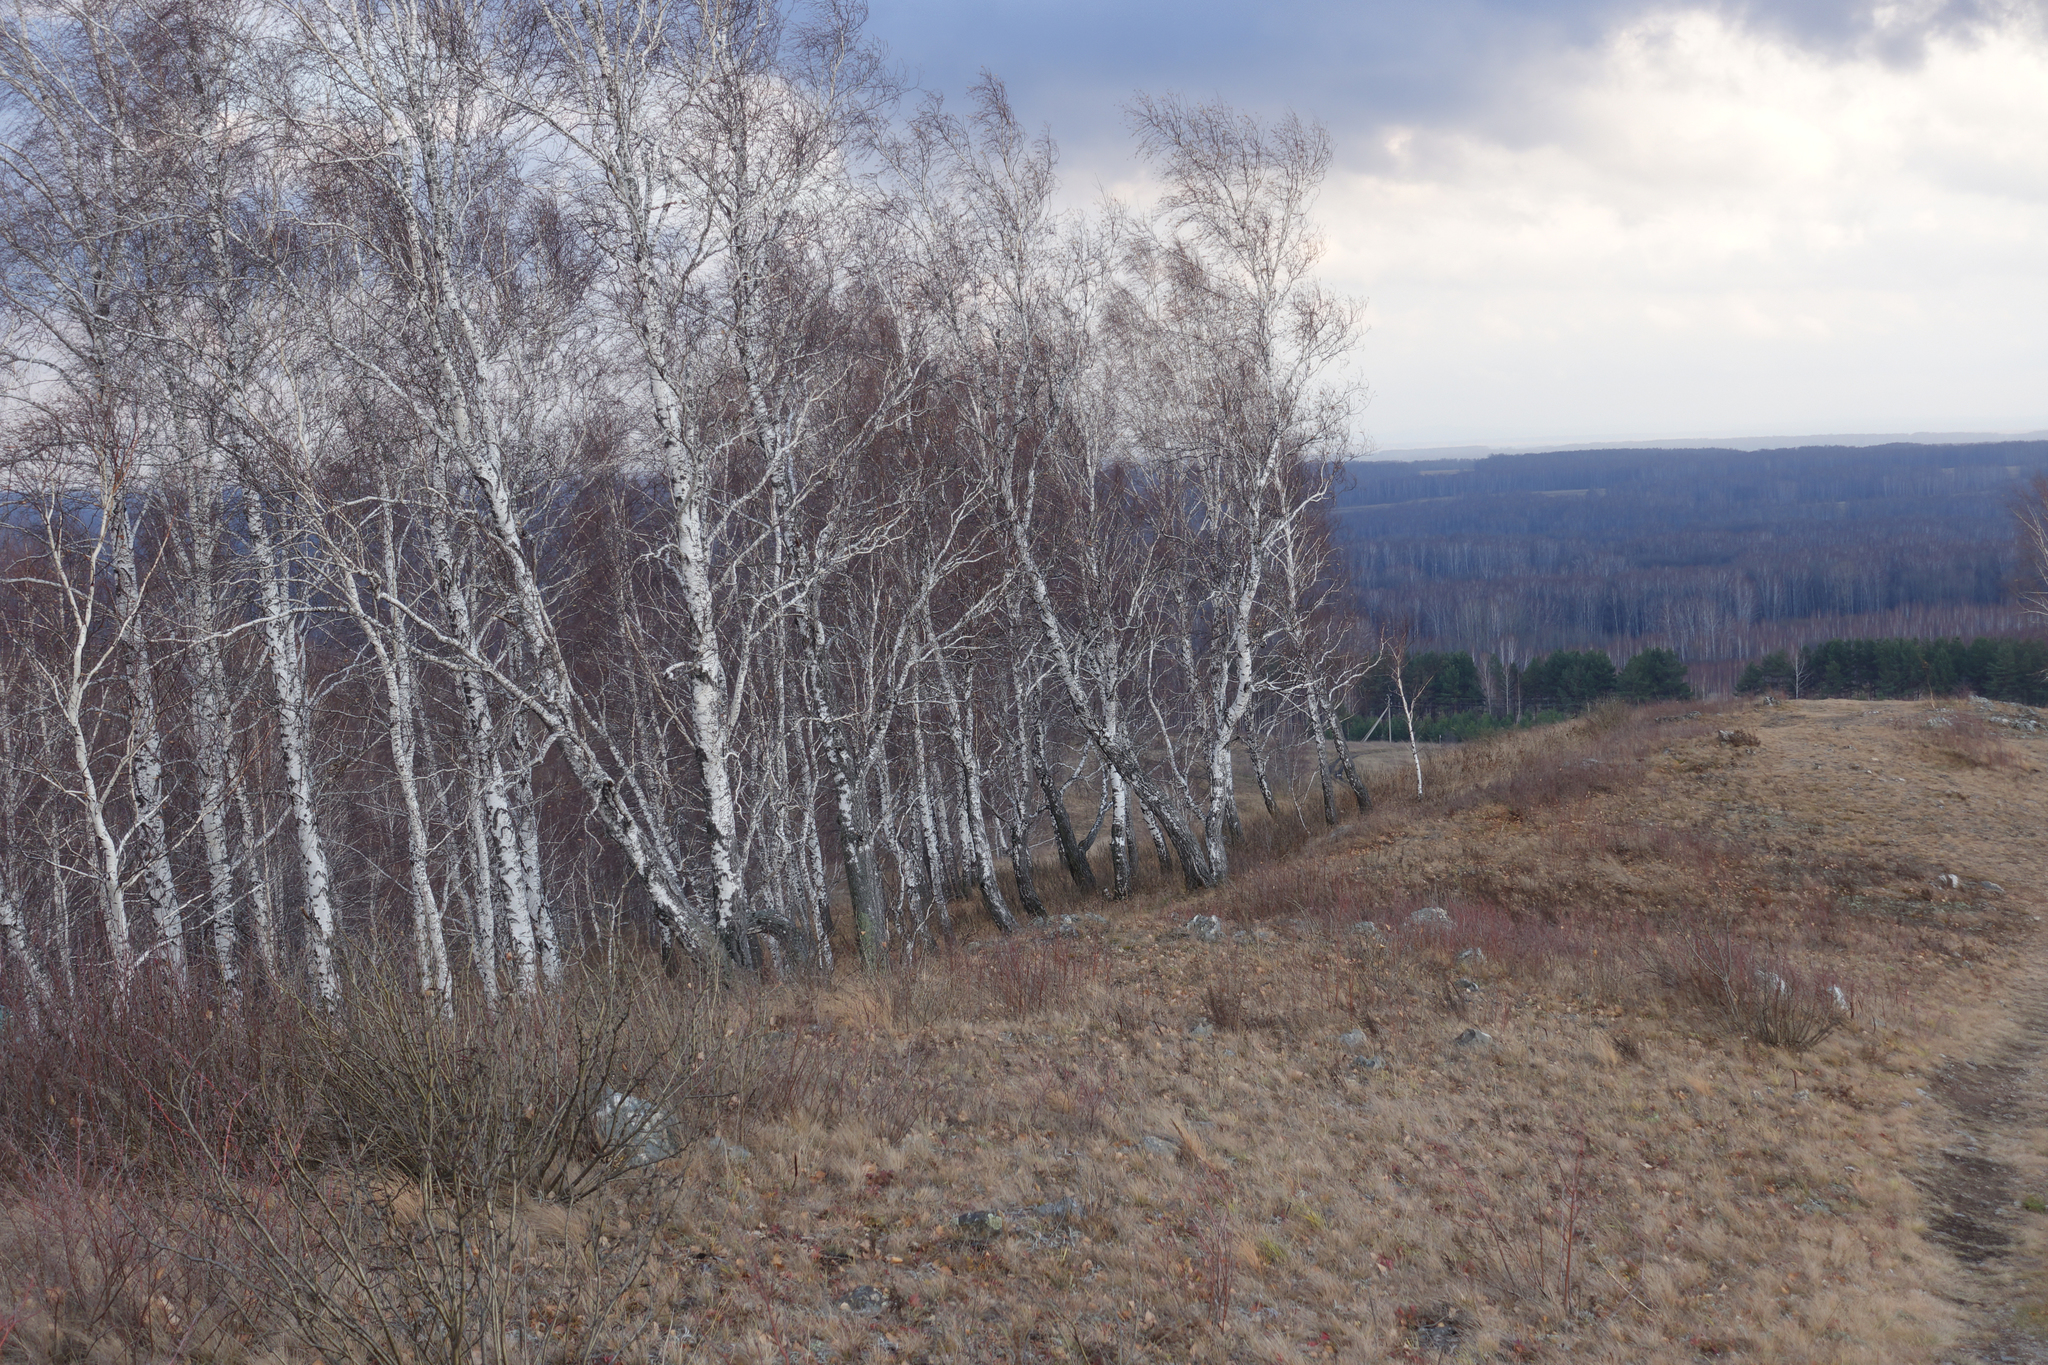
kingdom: Plantae
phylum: Tracheophyta
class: Magnoliopsida
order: Fagales
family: Betulaceae
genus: Betula
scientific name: Betula pendula
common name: Silver birch
